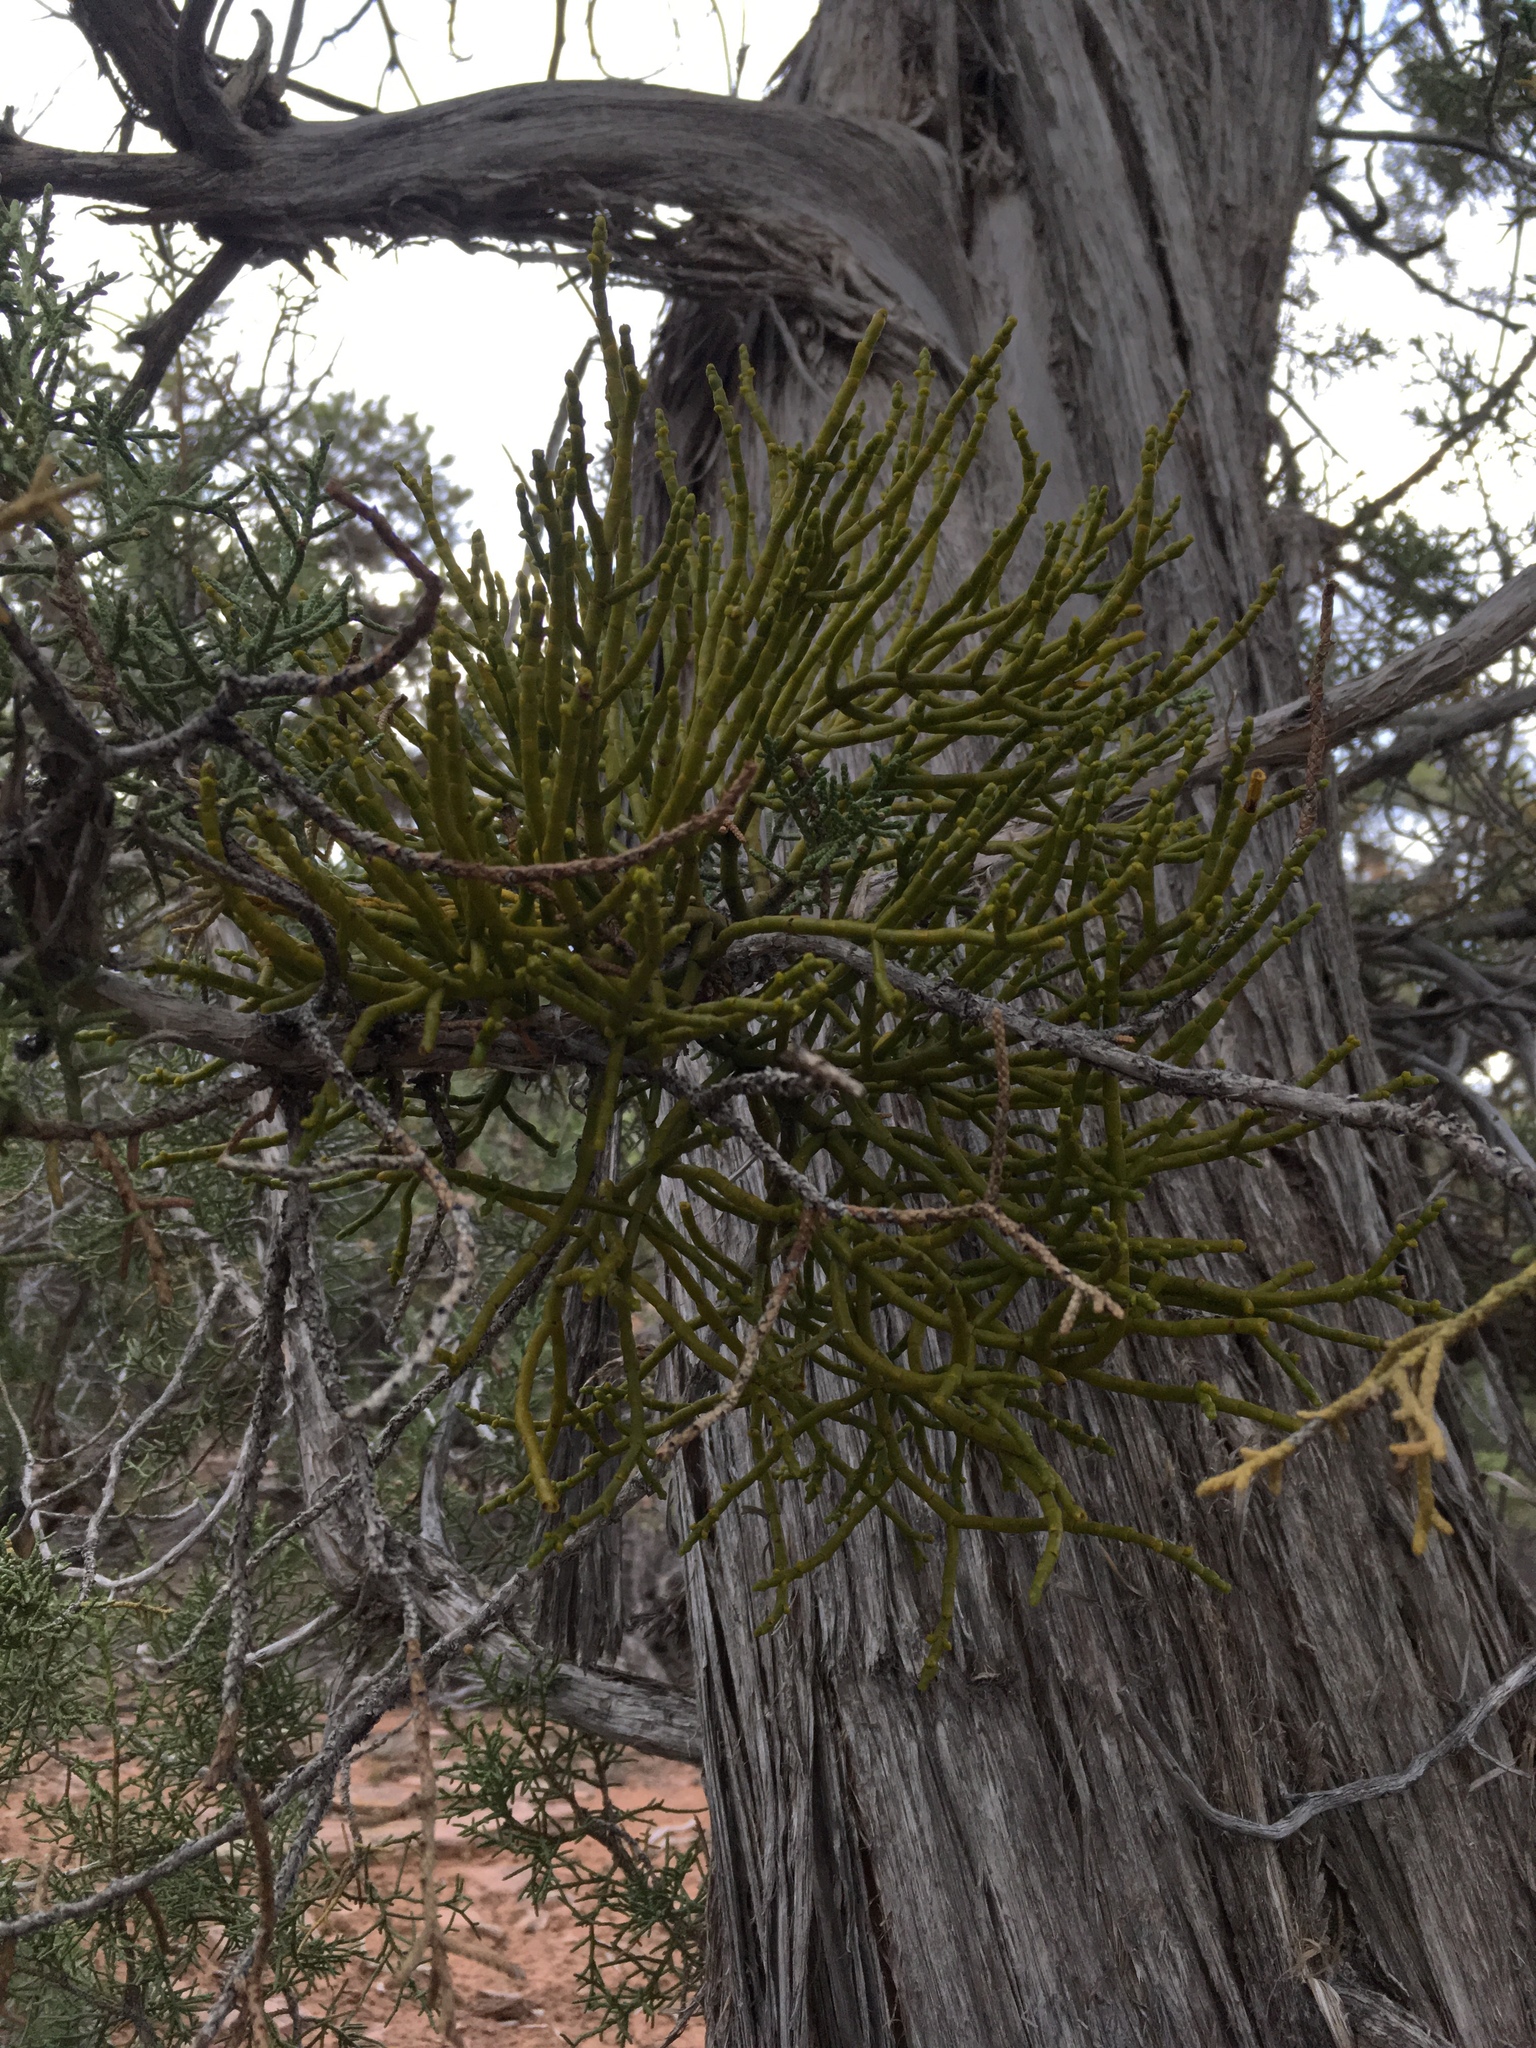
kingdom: Plantae
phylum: Tracheophyta
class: Magnoliopsida
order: Santalales
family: Viscaceae
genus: Phoradendron
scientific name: Phoradendron juniperinum
